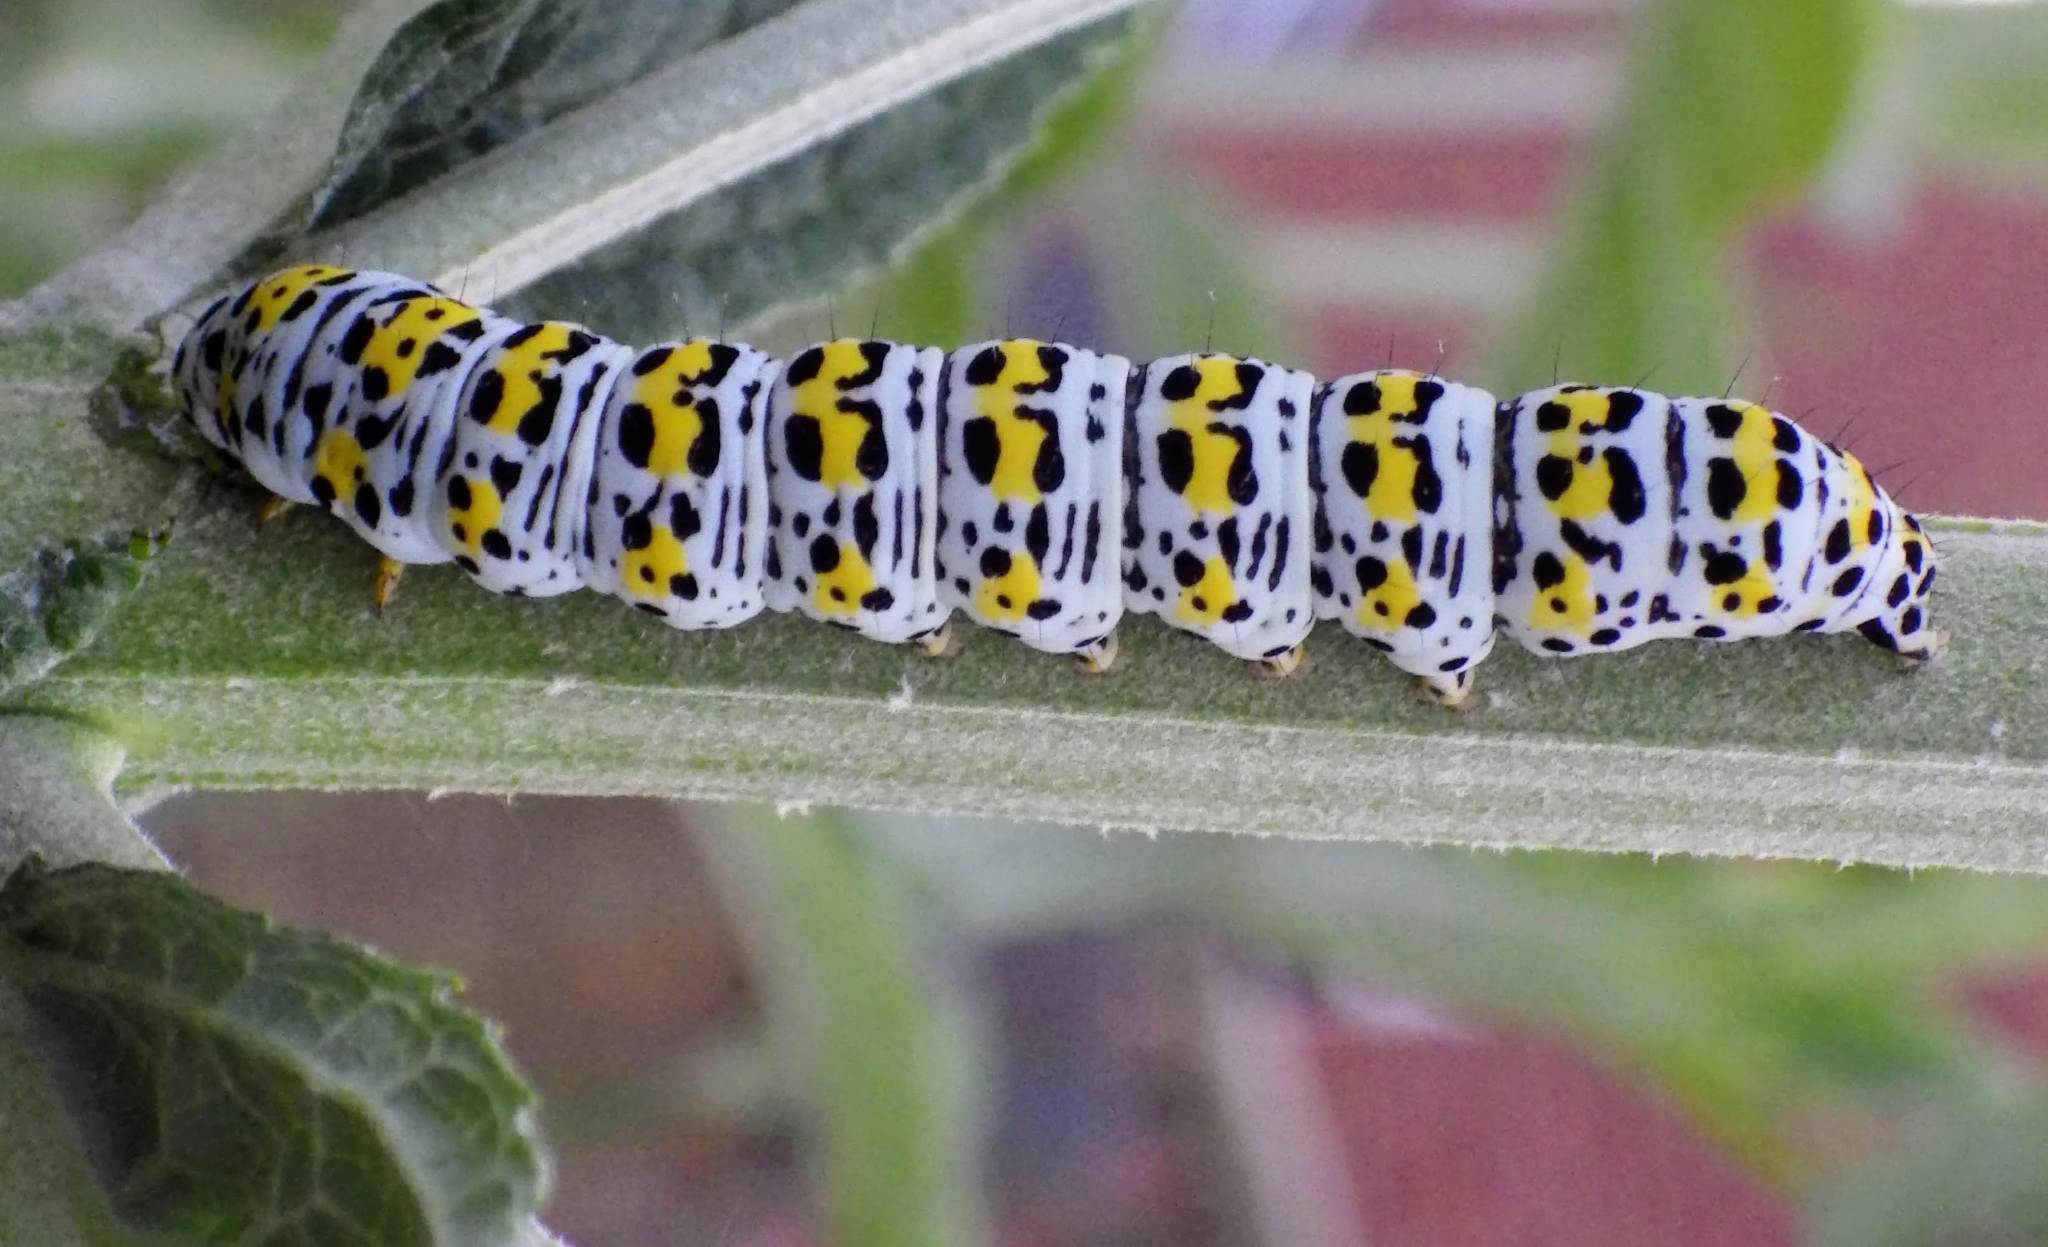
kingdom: Animalia
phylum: Arthropoda
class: Insecta
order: Lepidoptera
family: Noctuidae
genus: Cucullia
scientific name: Cucullia verbasci
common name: Mullein
